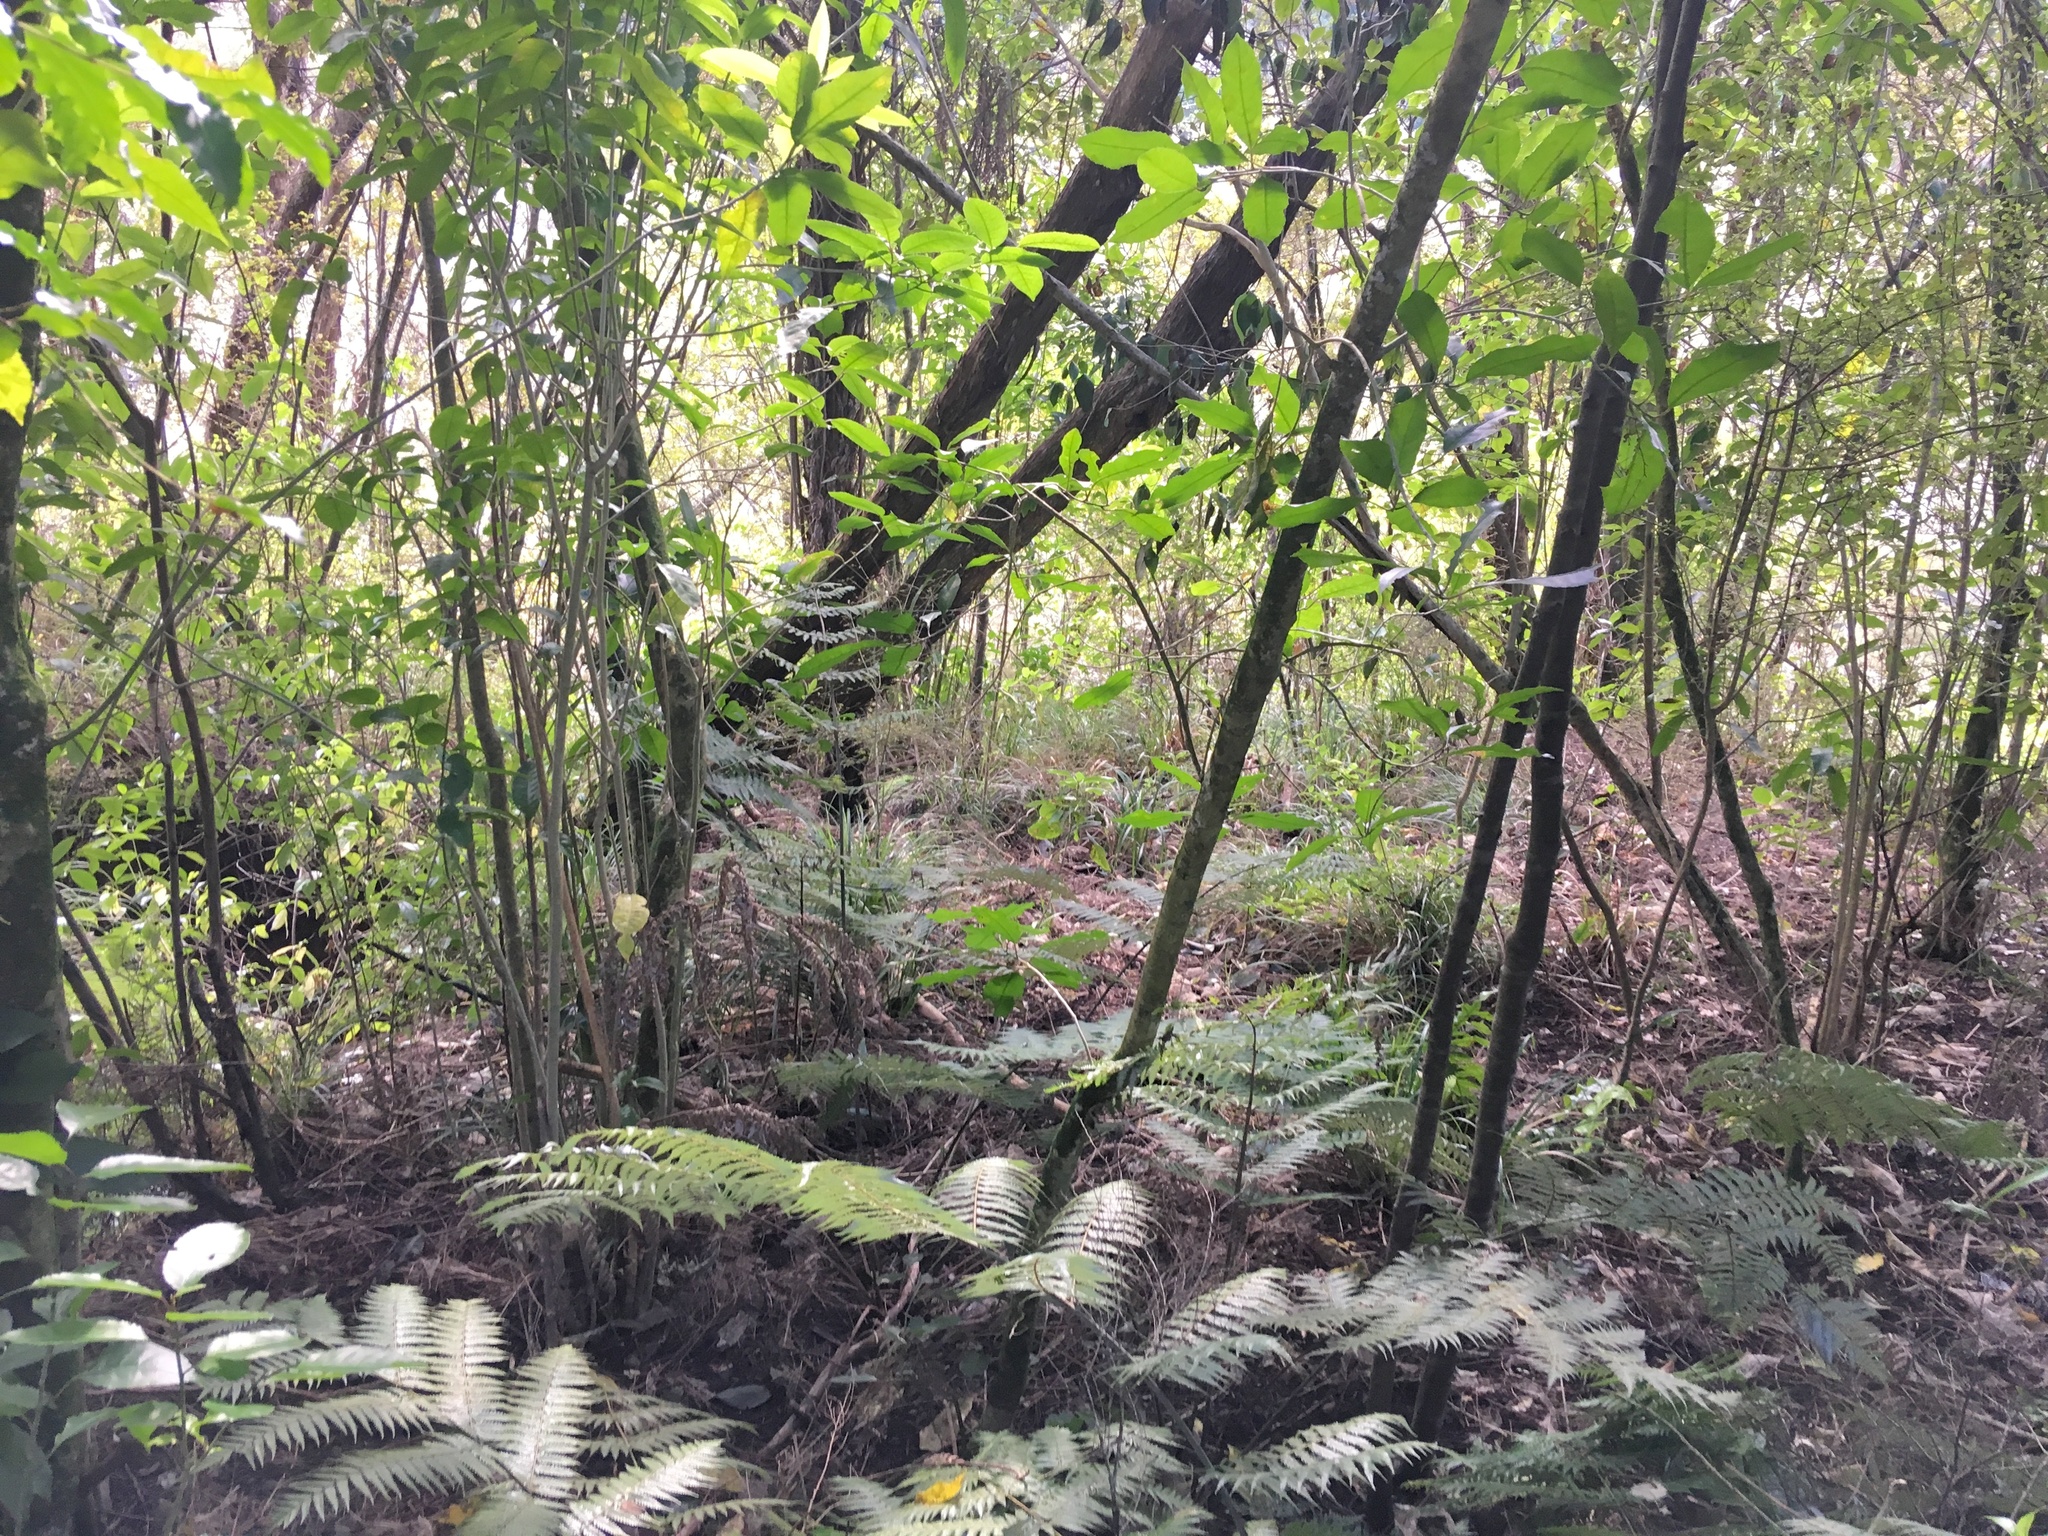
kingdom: Plantae
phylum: Tracheophyta
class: Magnoliopsida
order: Malpighiales
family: Violaceae
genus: Melicytus
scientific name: Melicytus ramiflorus
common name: Mahoe
